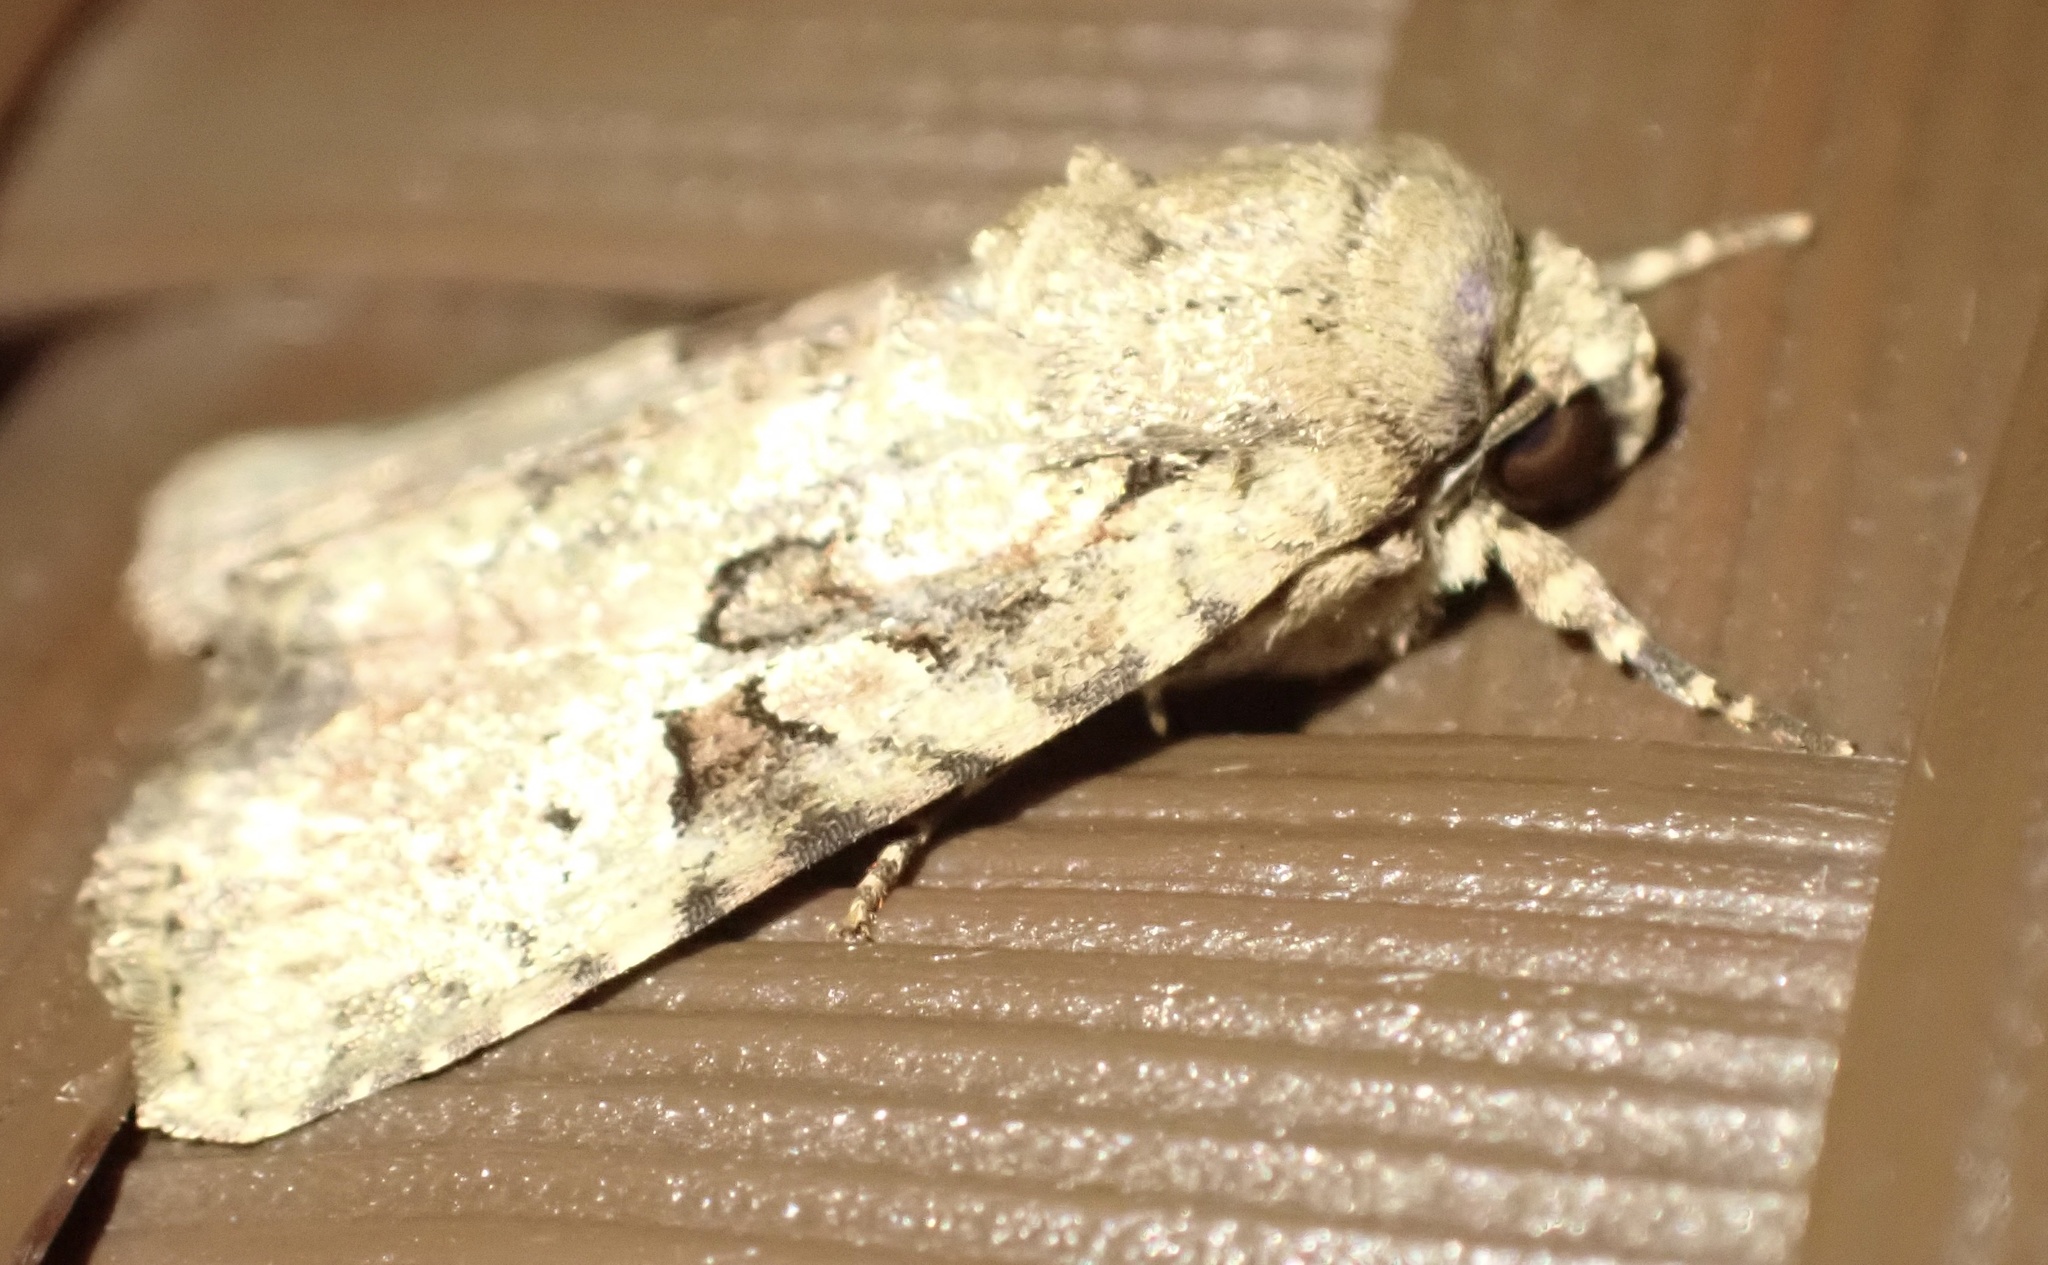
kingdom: Animalia
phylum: Arthropoda
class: Insecta
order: Lepidoptera
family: Noctuidae
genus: Magusa
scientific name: Magusa versicolora
